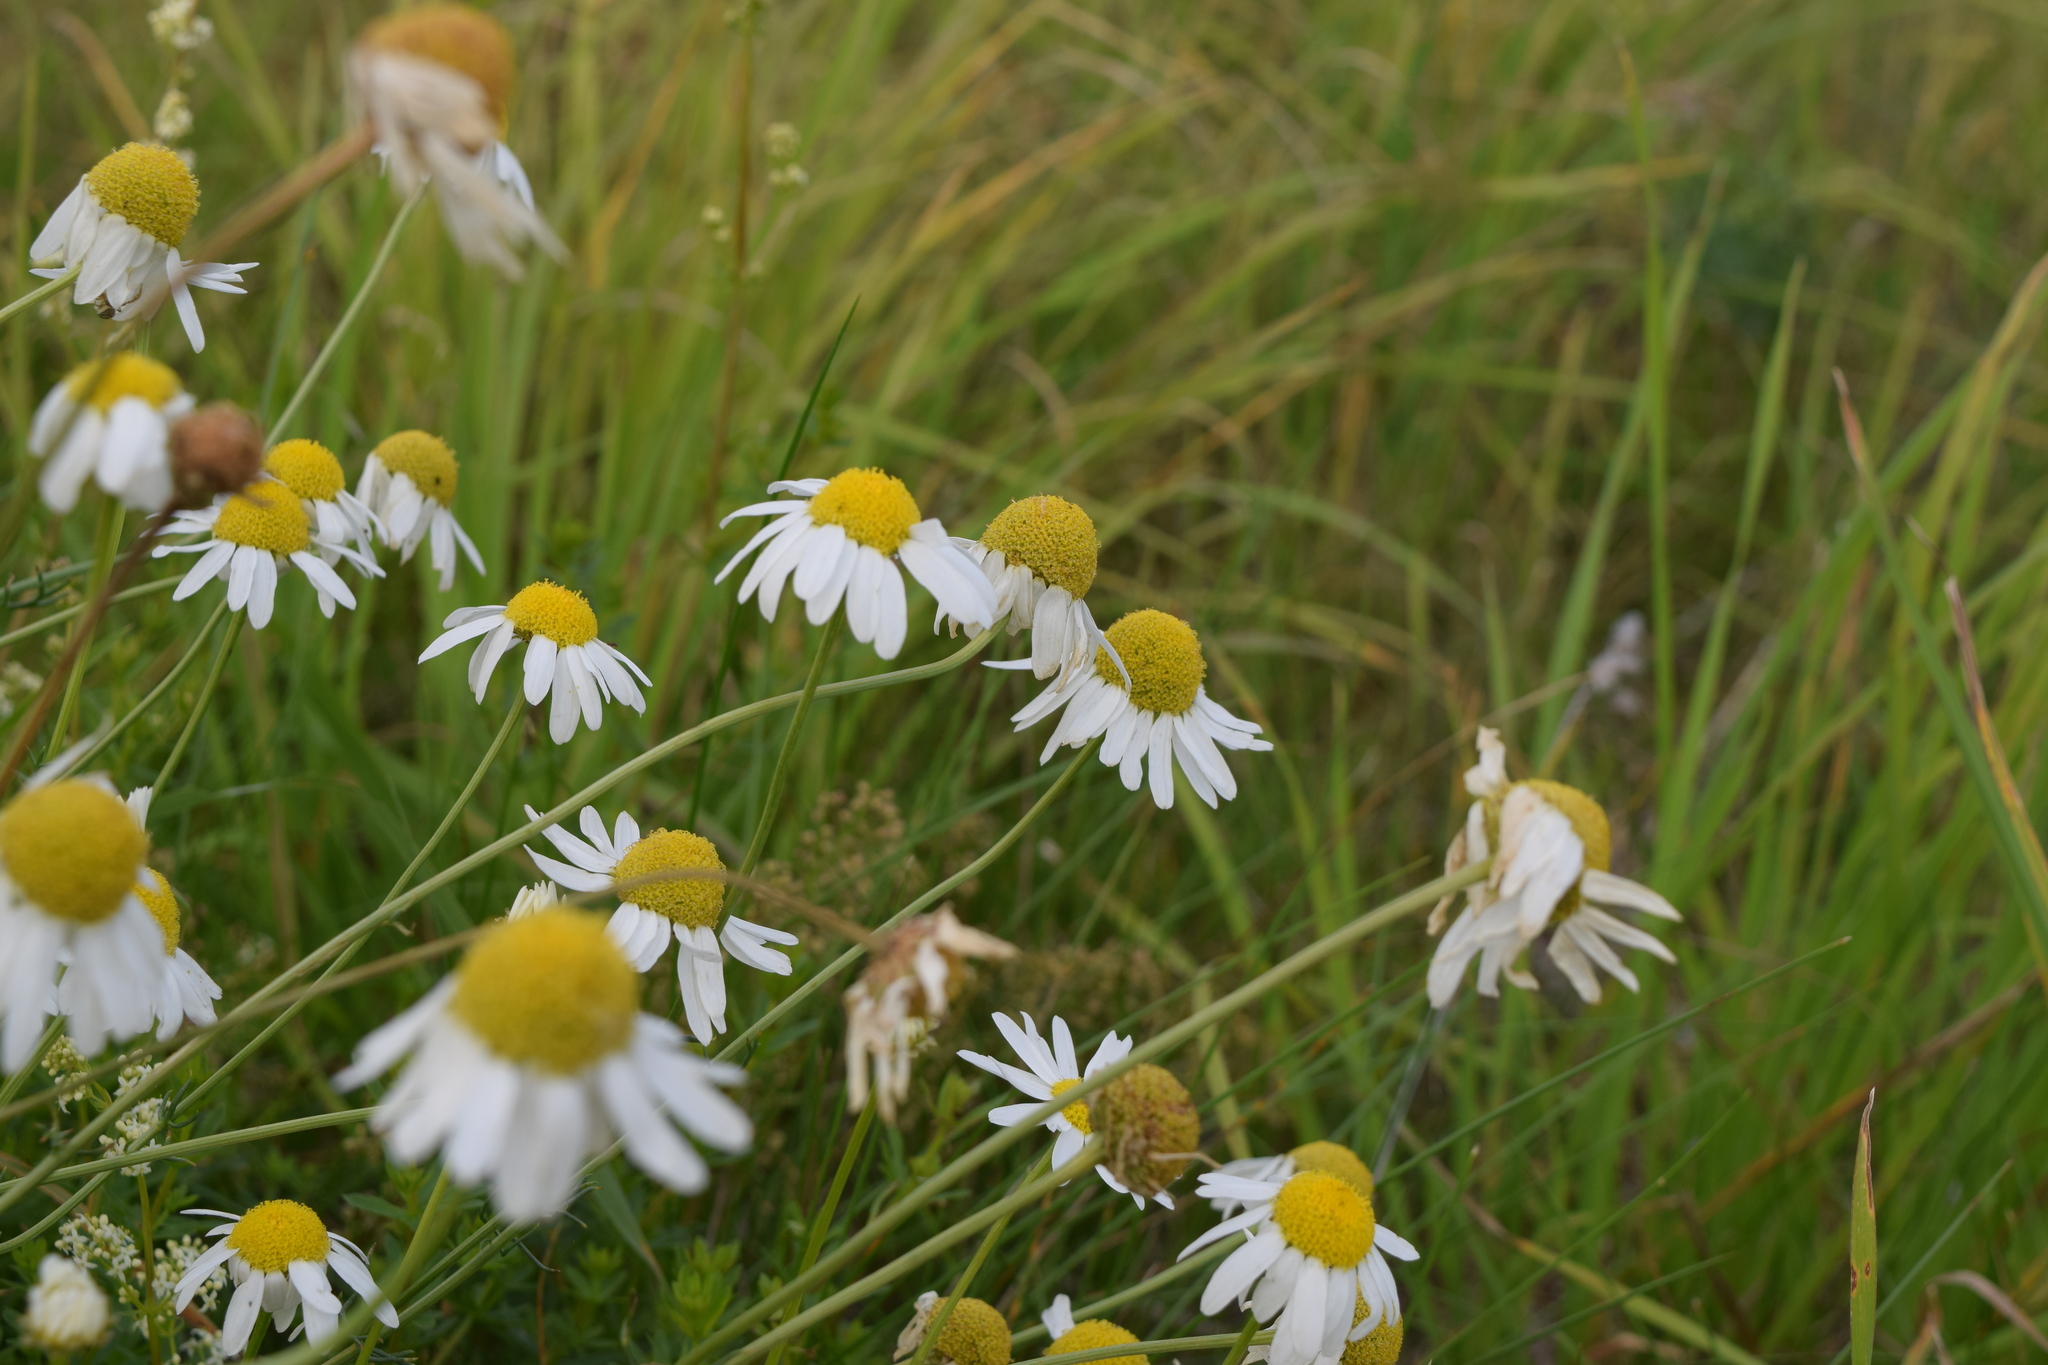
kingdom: Plantae
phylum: Tracheophyta
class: Magnoliopsida
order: Asterales
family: Asteraceae
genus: Tripleurospermum
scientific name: Tripleurospermum inodorum
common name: Scentless mayweed
